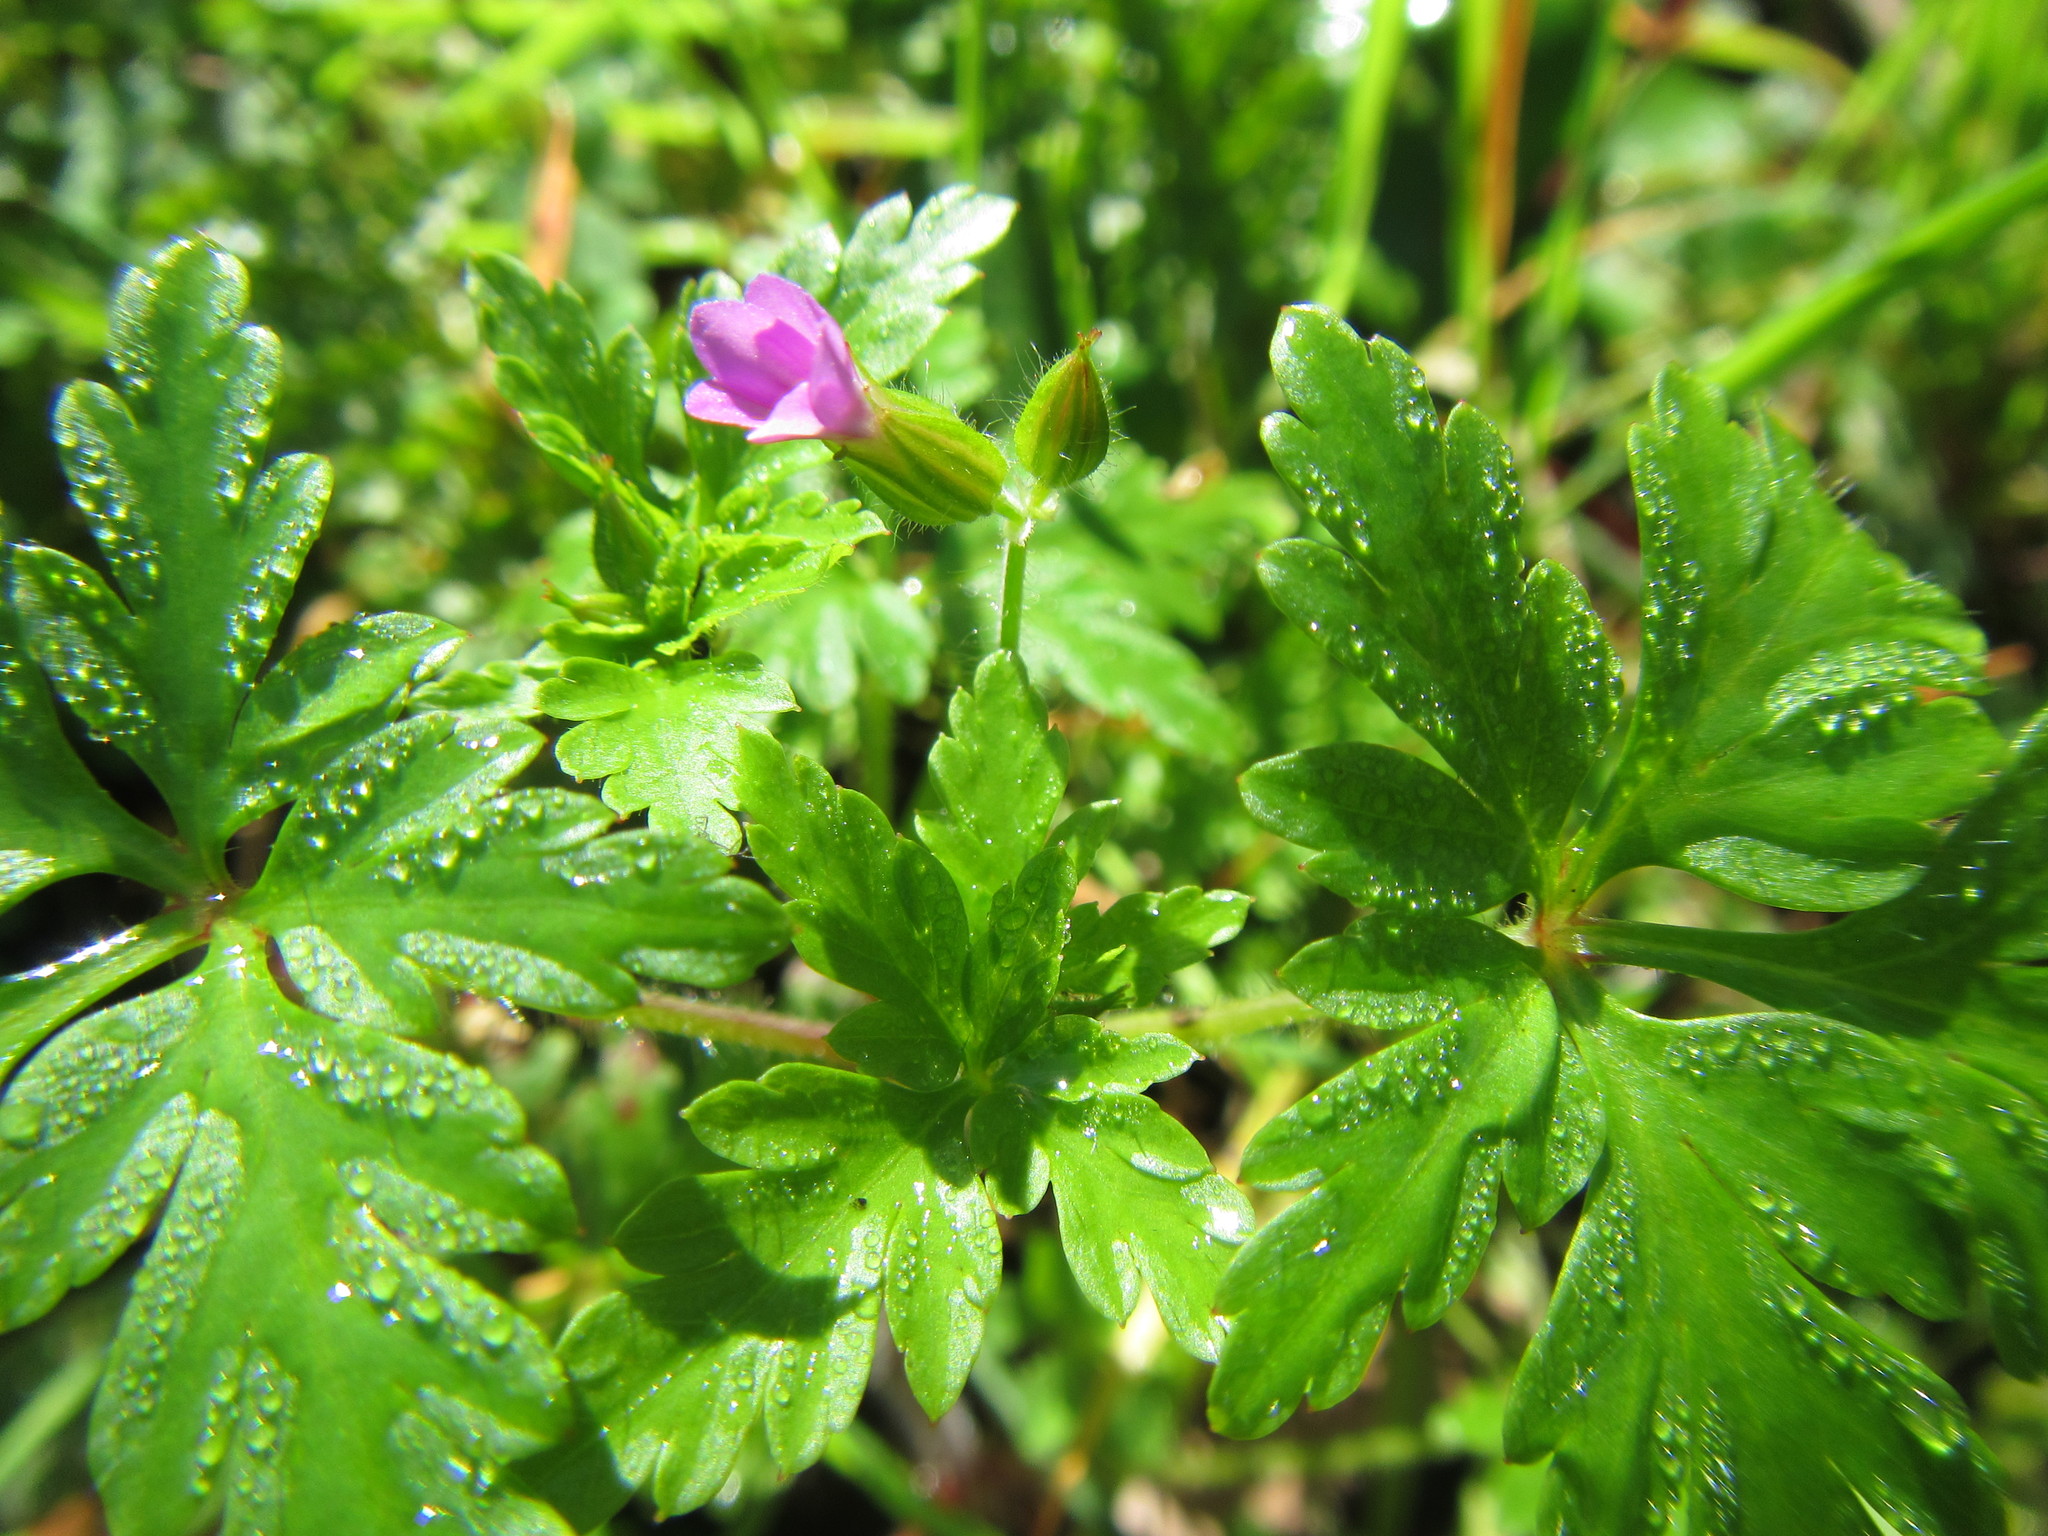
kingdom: Plantae
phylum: Tracheophyta
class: Magnoliopsida
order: Geraniales
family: Geraniaceae
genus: Geranium
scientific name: Geranium purpureum
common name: Little-robin
